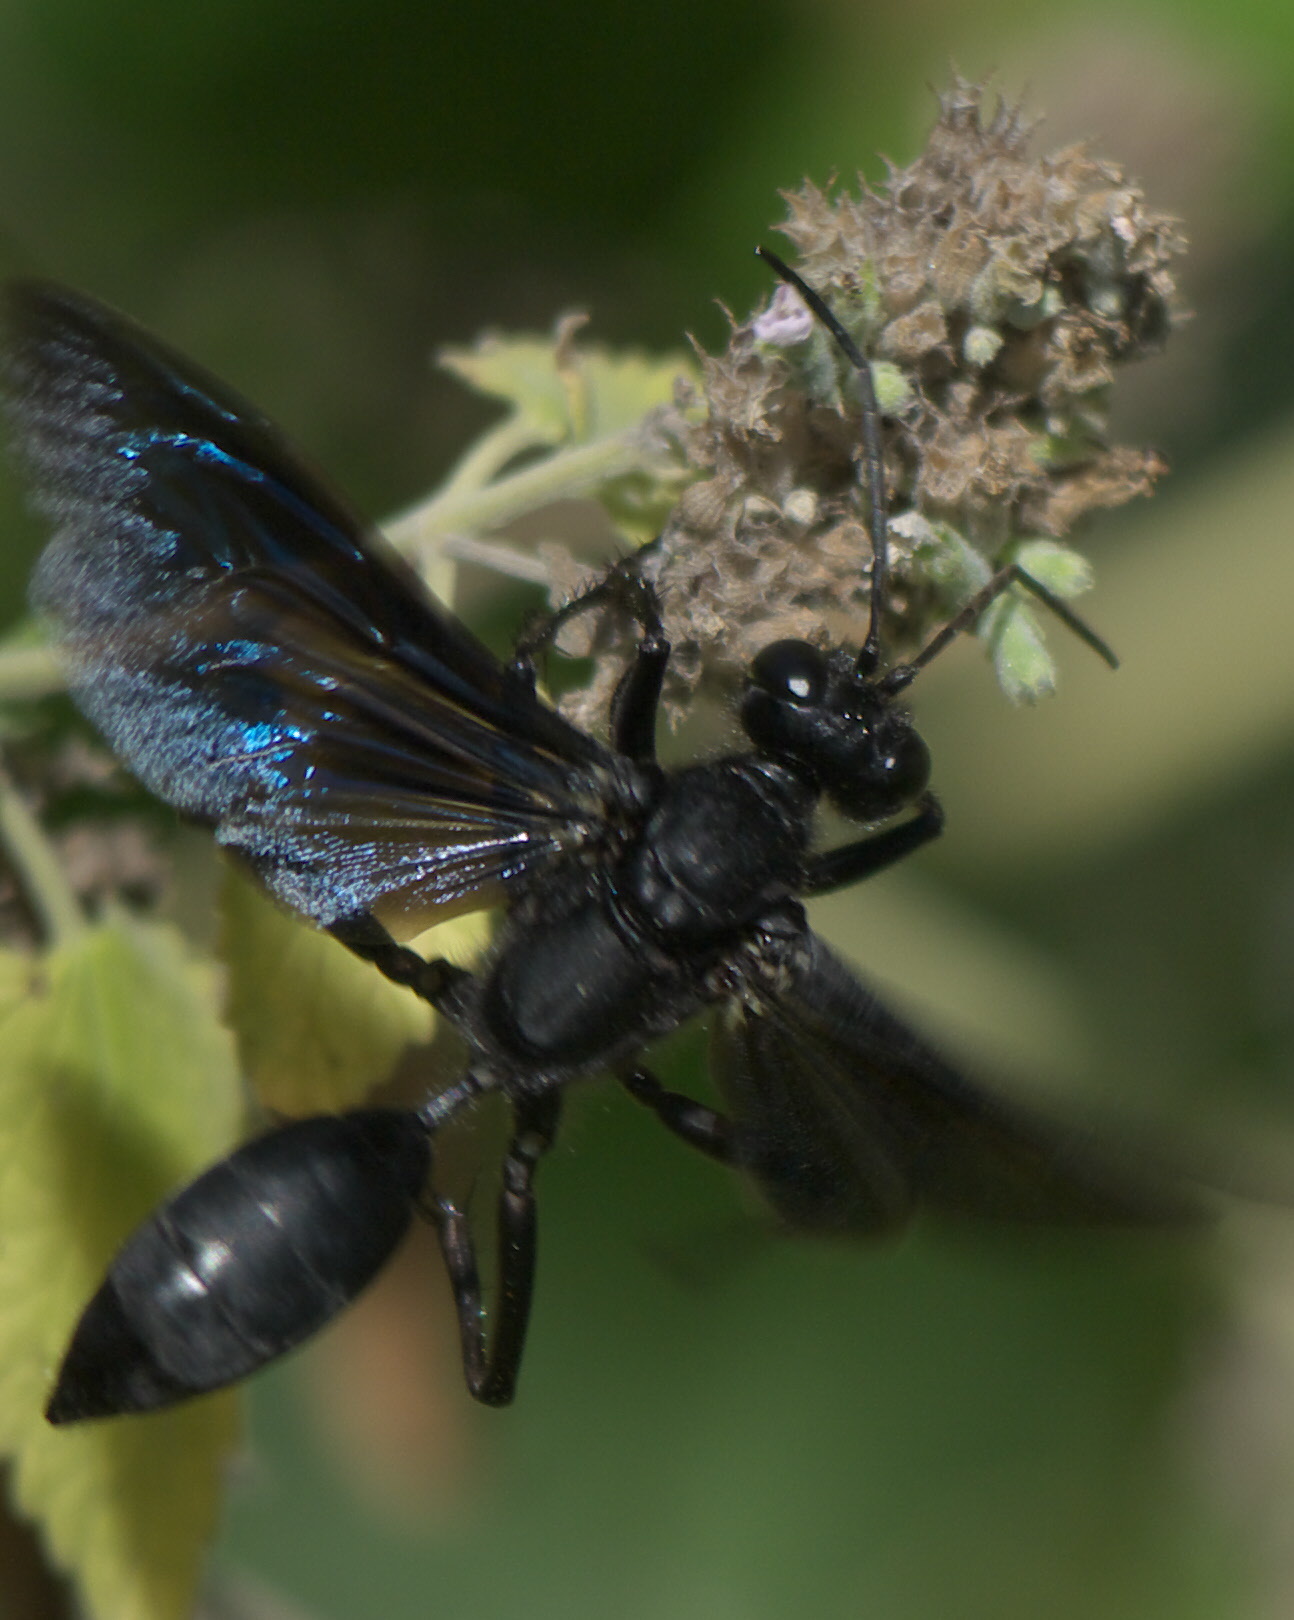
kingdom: Animalia
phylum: Arthropoda
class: Insecta
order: Hymenoptera
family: Sphecidae
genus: Sphex
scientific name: Sphex pensylvanicus
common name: Great black digger wasp
